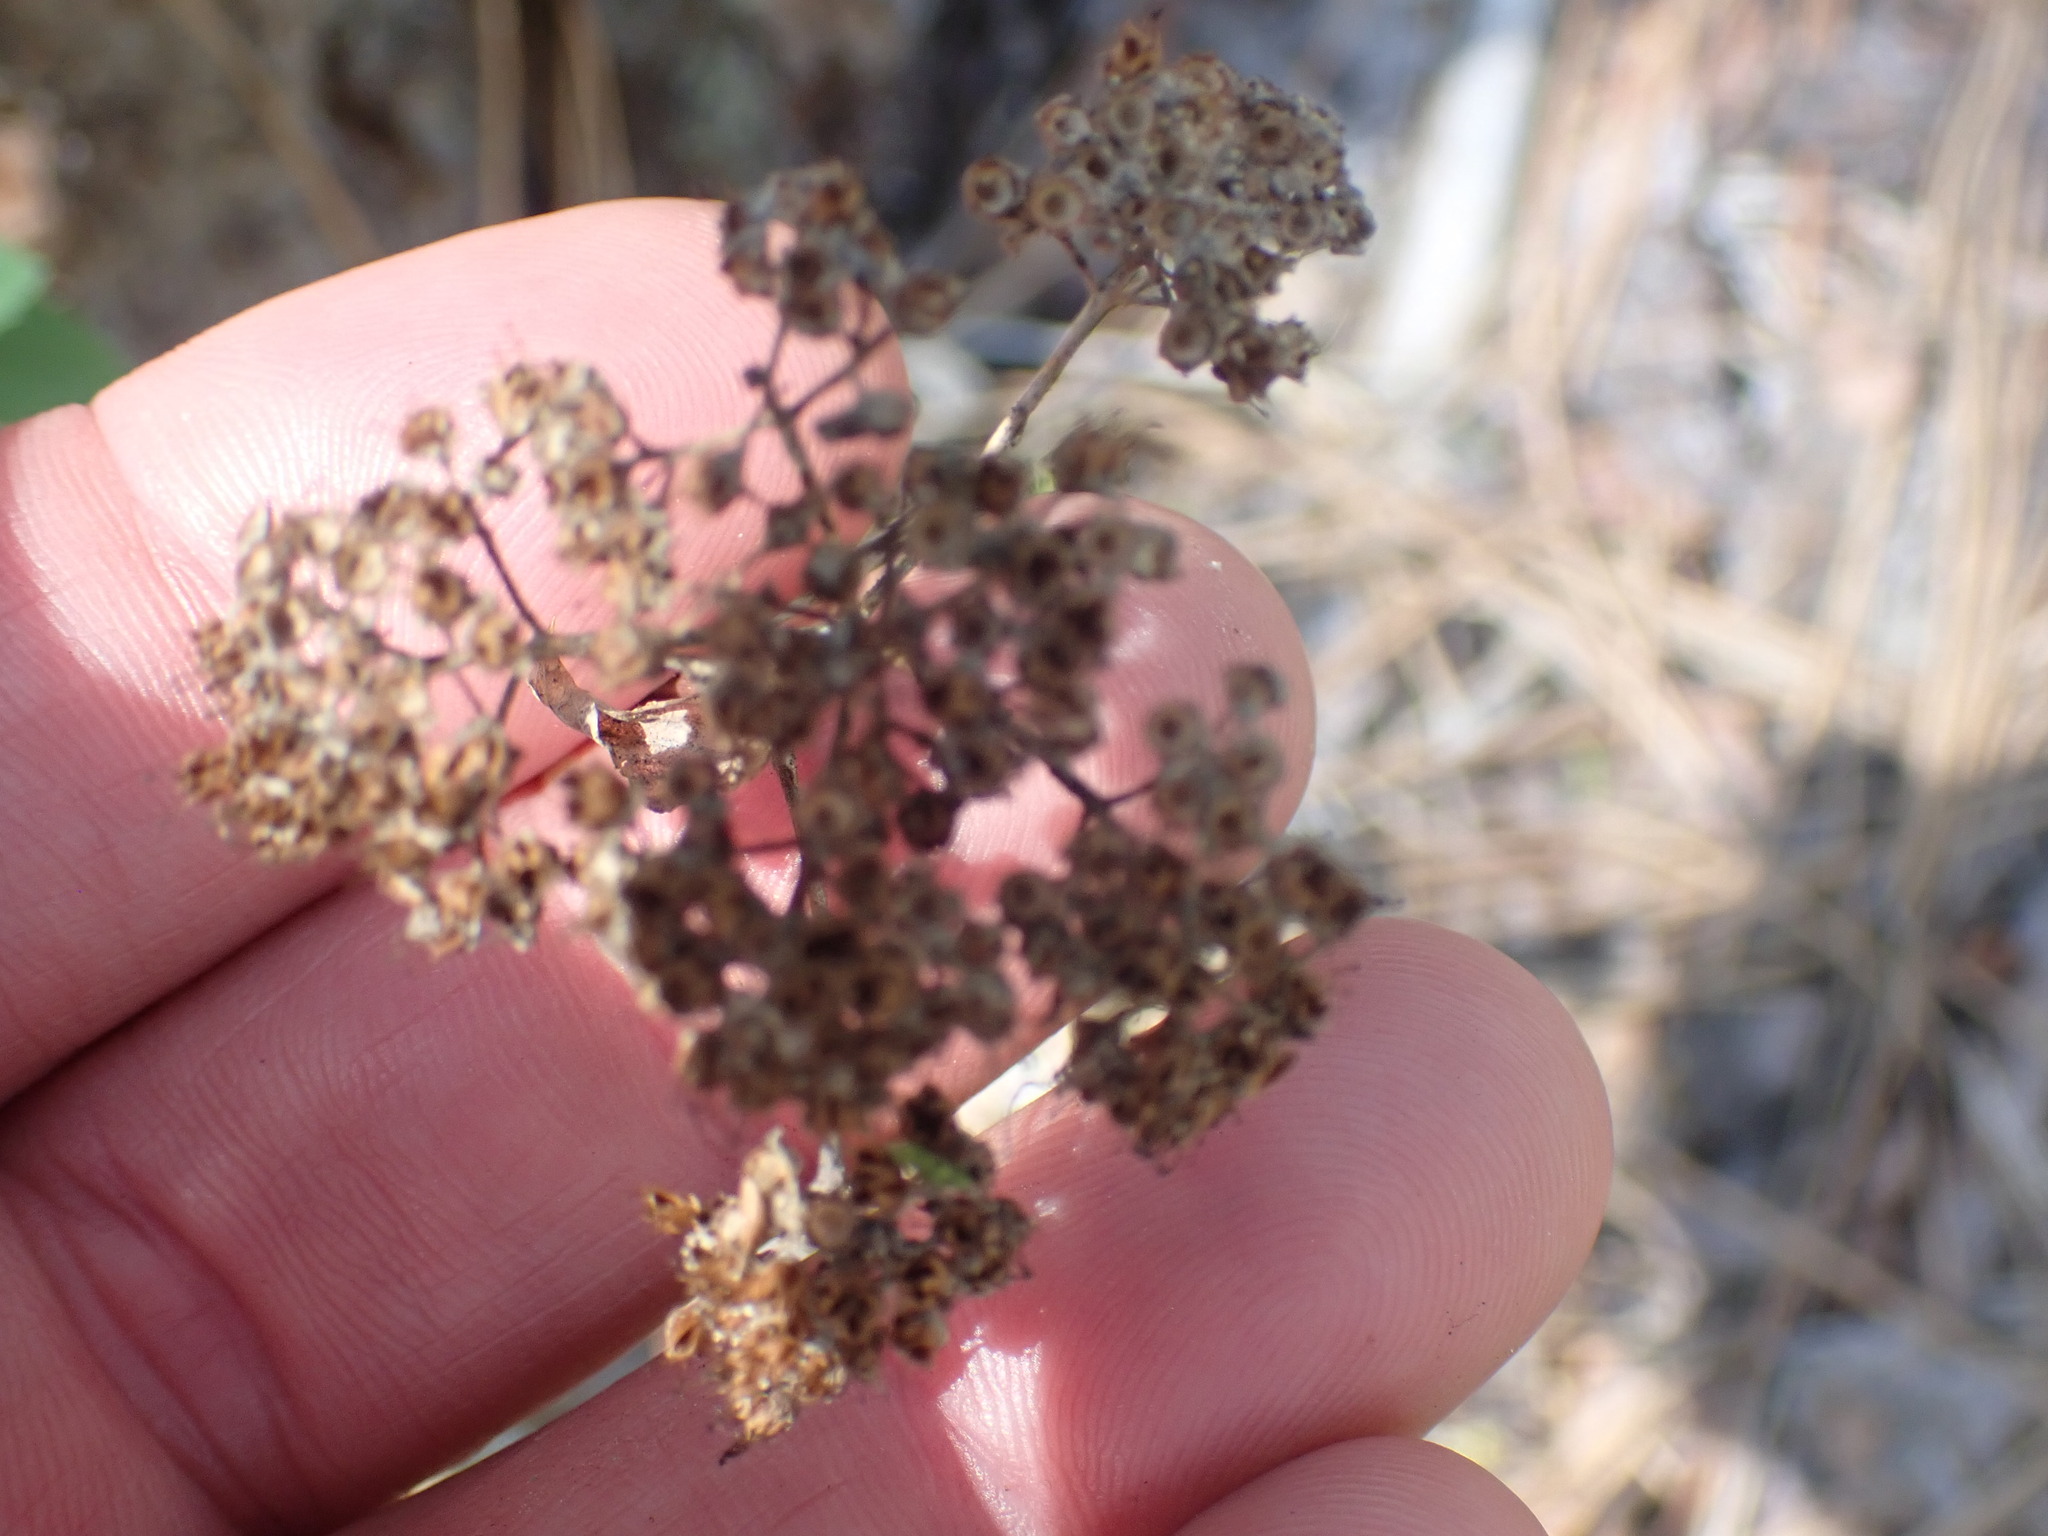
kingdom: Plantae
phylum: Tracheophyta
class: Magnoliopsida
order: Rosales
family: Rosaceae
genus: Spiraea
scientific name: Spiraea lucida
